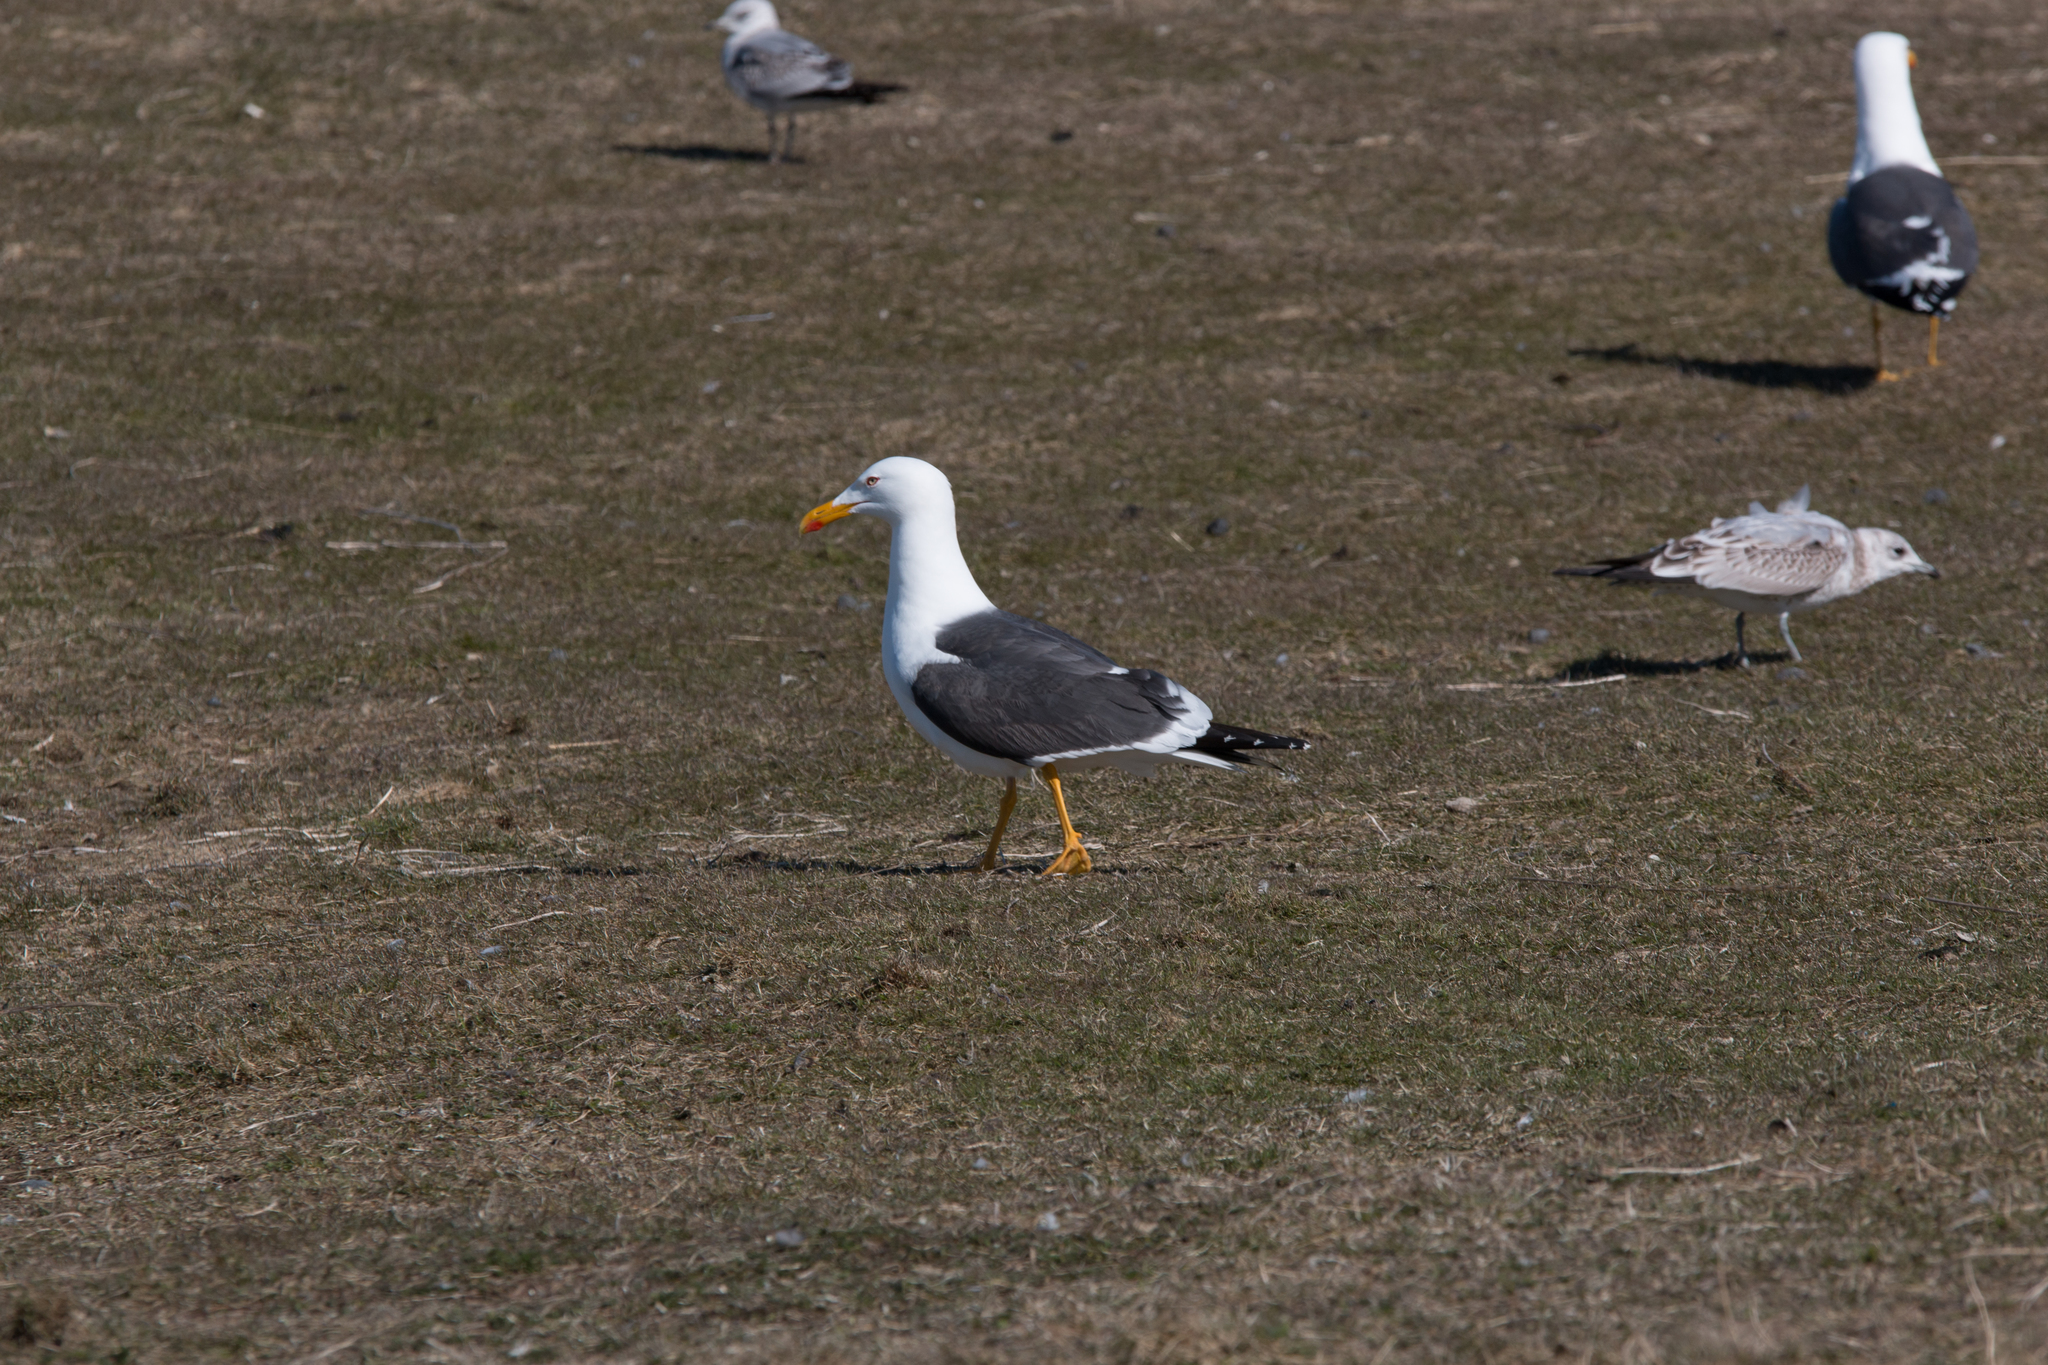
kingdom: Animalia
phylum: Chordata
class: Aves
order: Charadriiformes
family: Laridae
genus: Larus
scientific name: Larus fuscus
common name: Lesser black-backed gull
